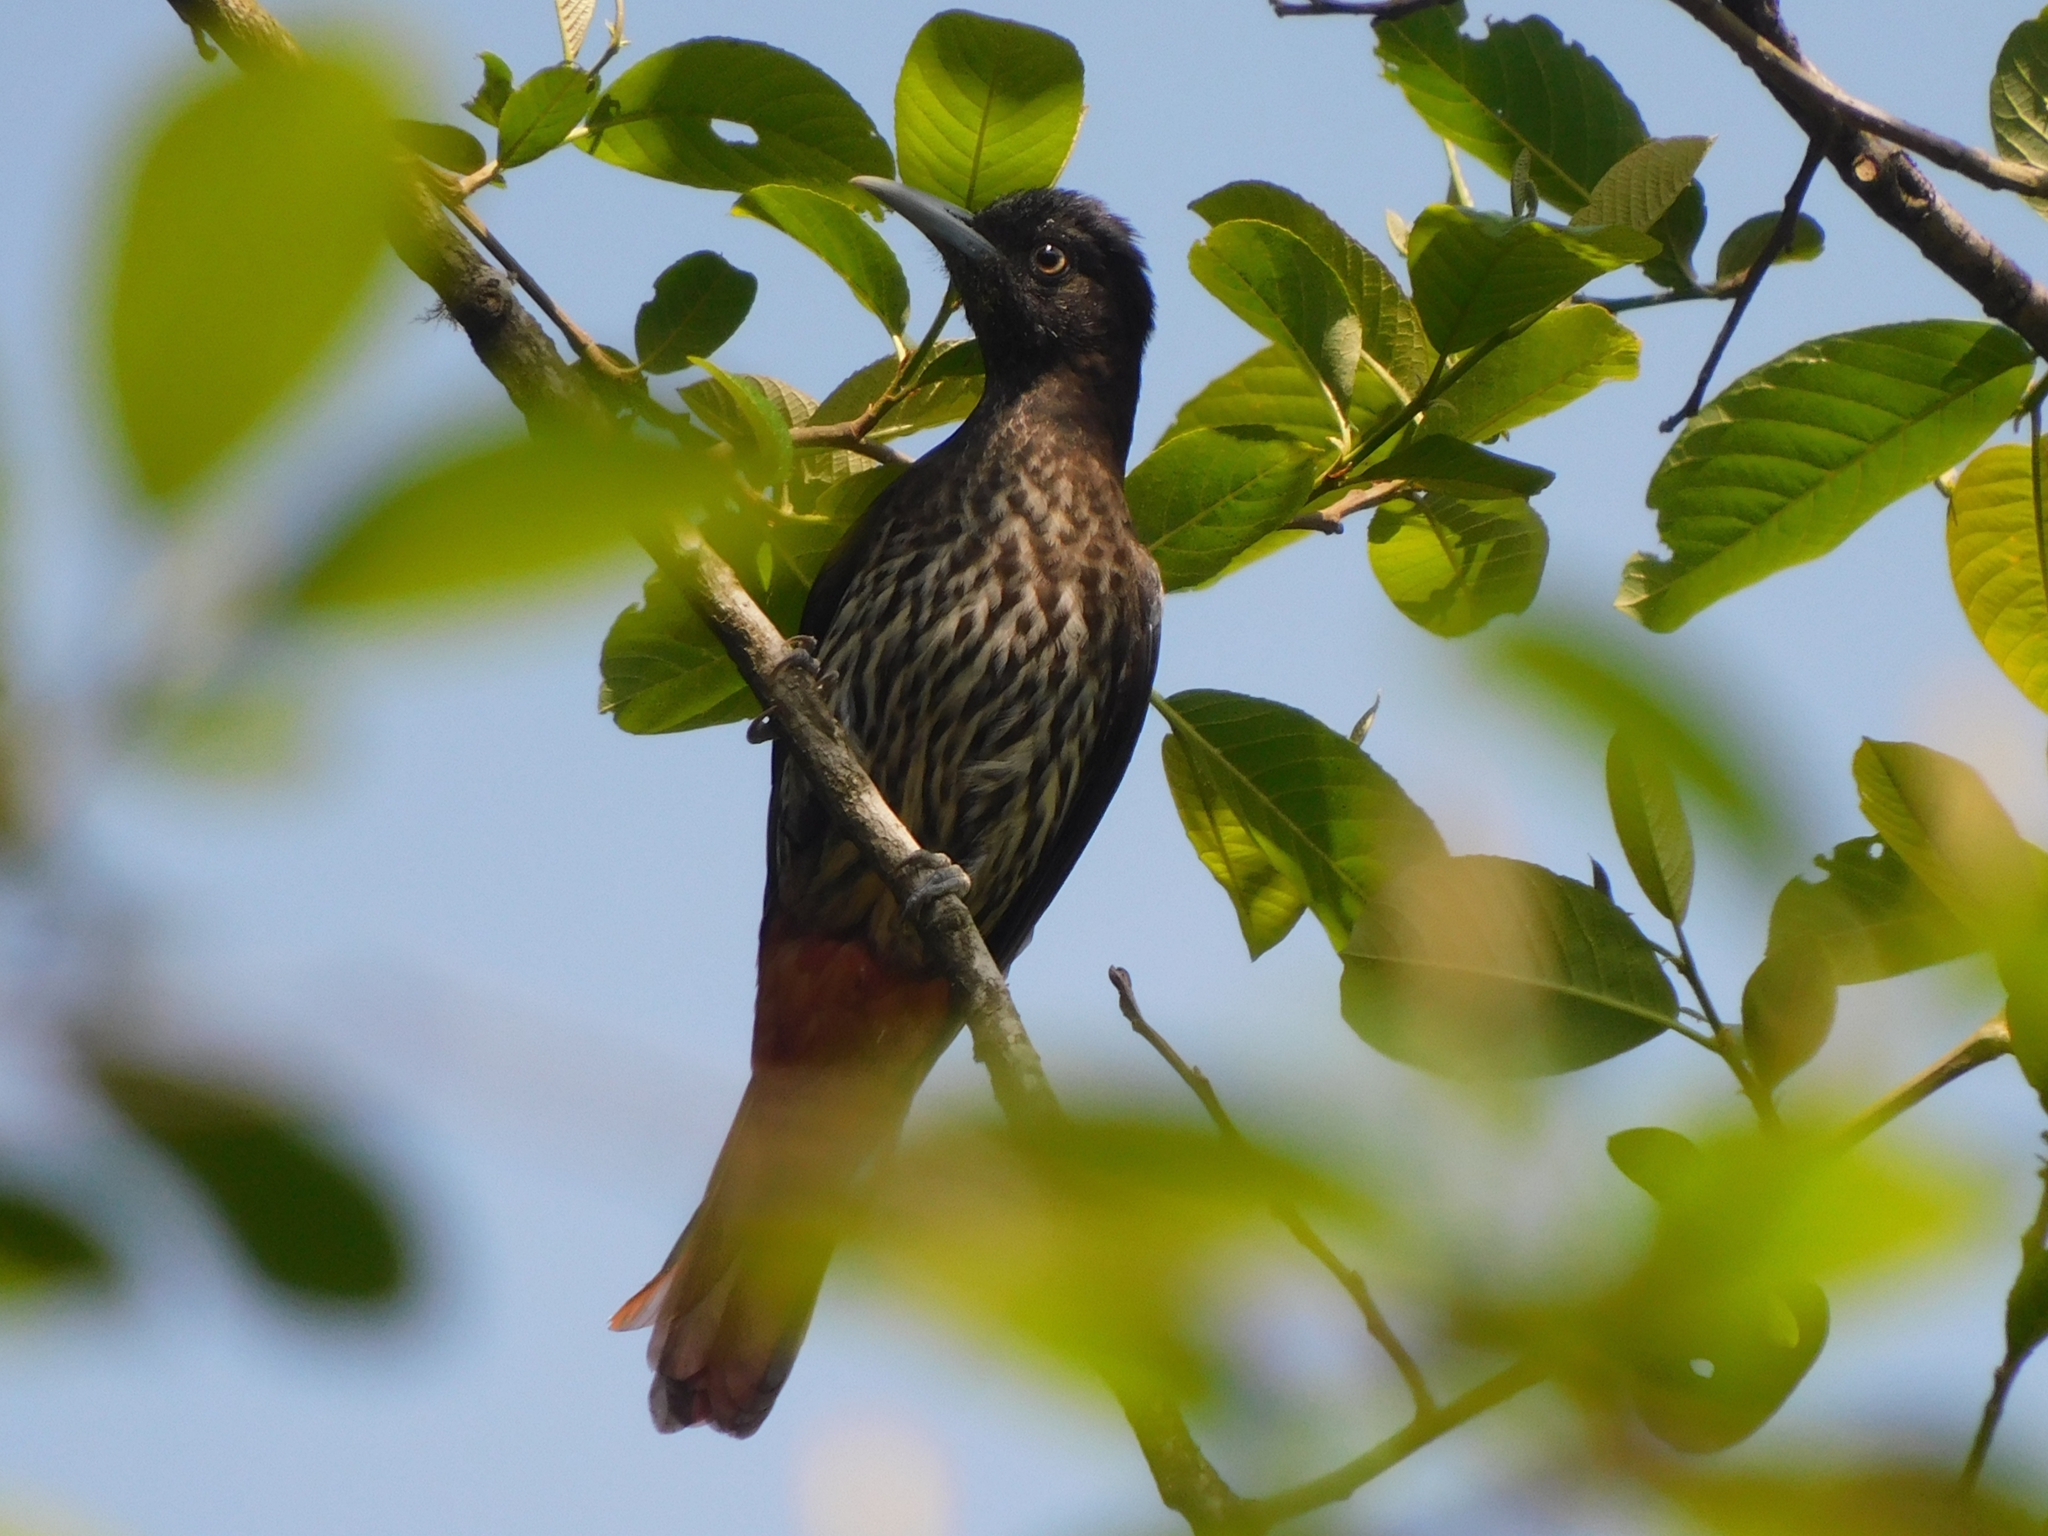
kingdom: Animalia
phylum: Chordata
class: Aves
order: Passeriformes
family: Oriolidae
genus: Oriolus
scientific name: Oriolus traillii
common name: Maroon oriole
